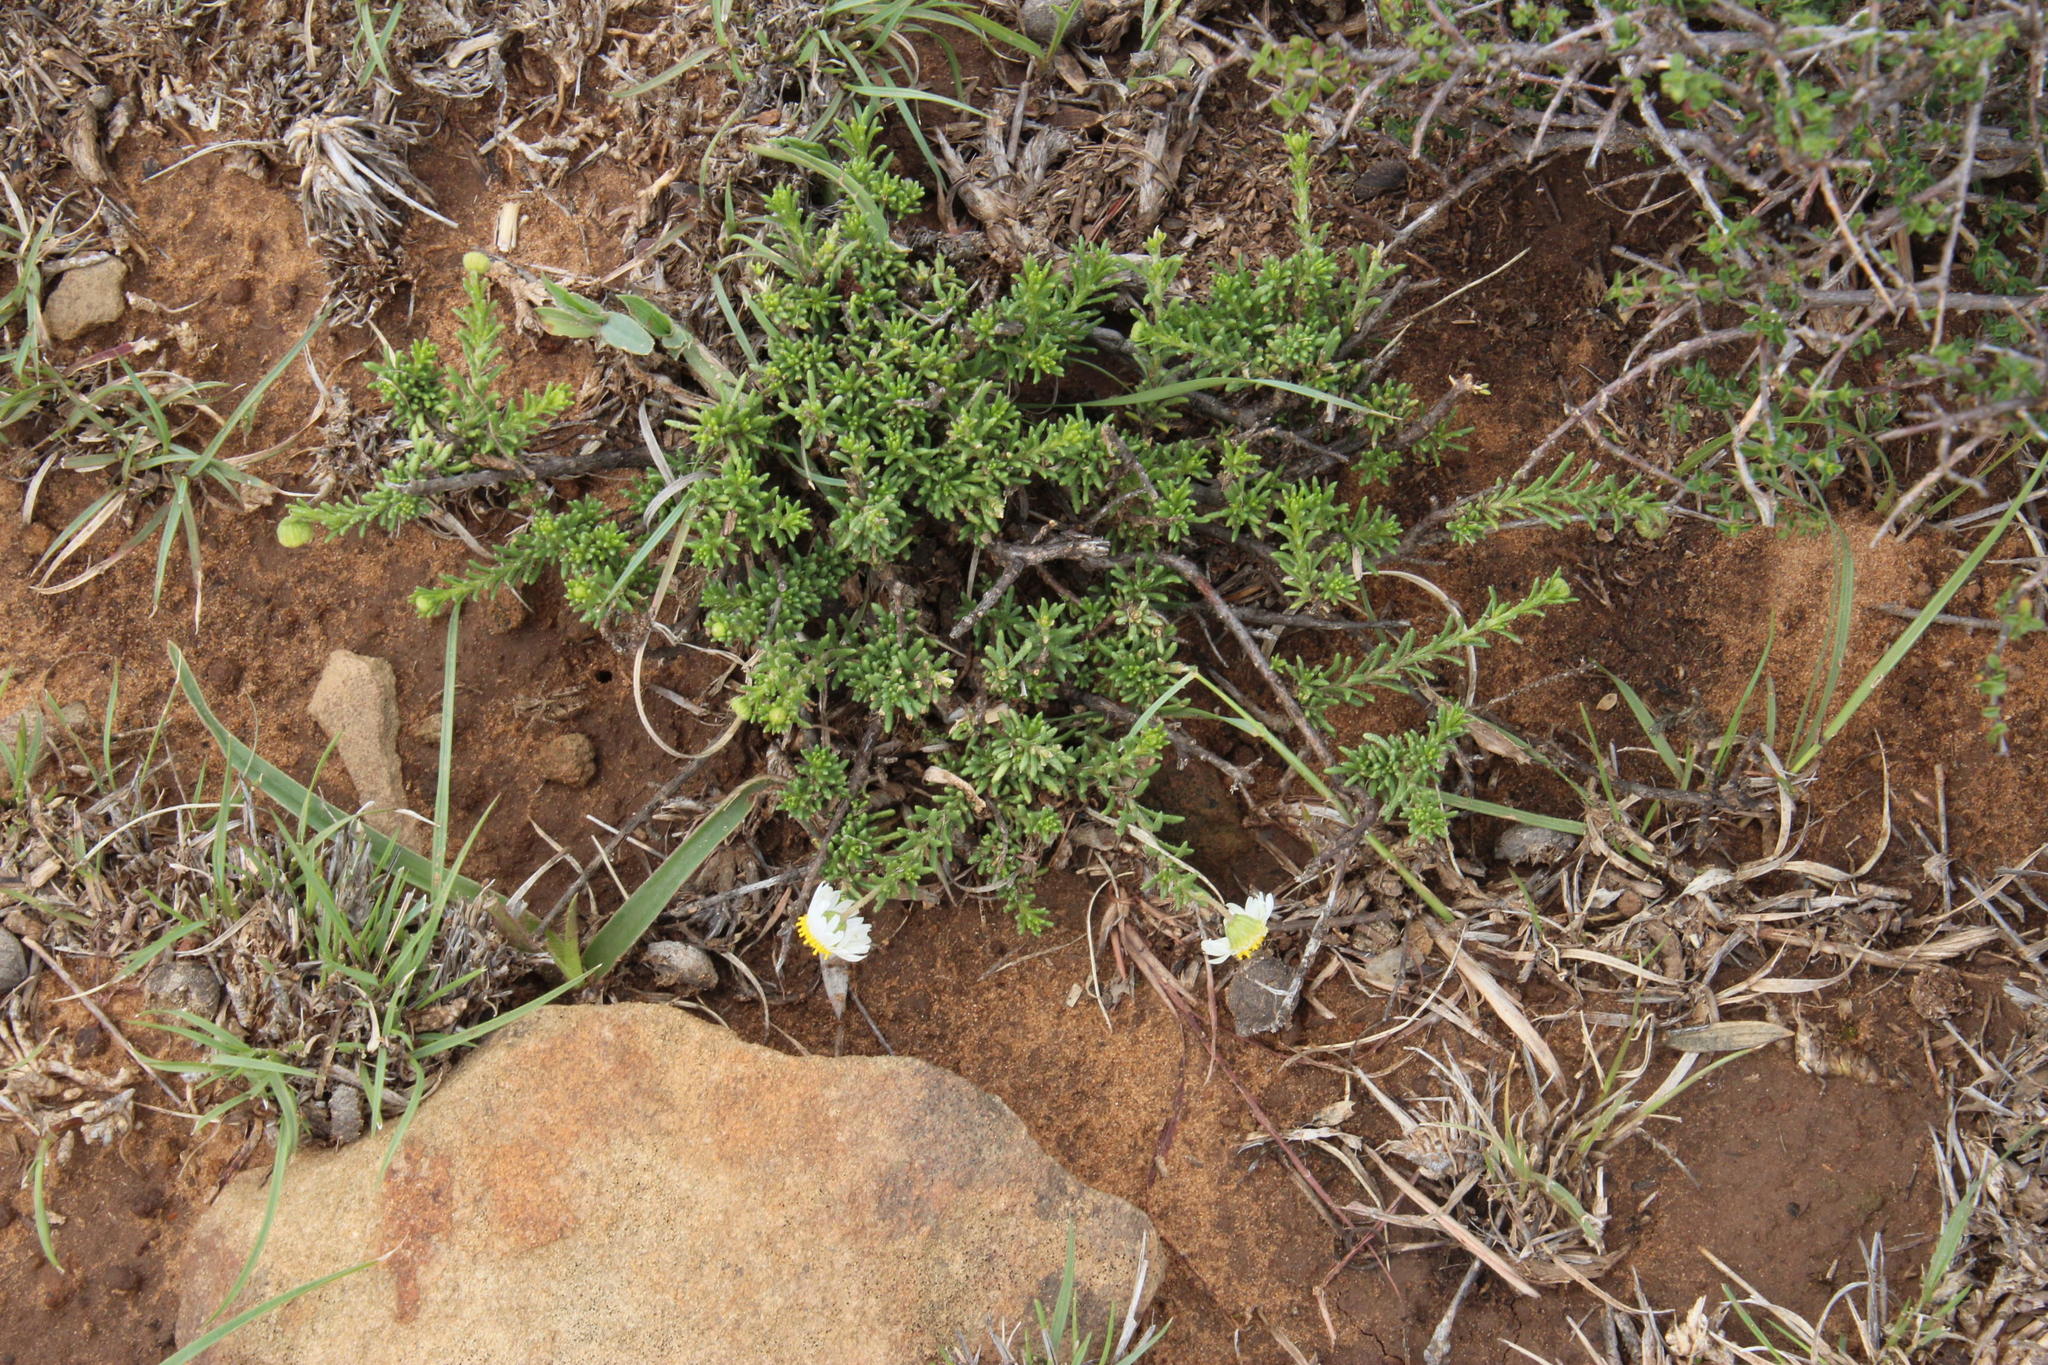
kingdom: Plantae
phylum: Tracheophyta
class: Magnoliopsida
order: Asterales
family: Asteraceae
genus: Felicia
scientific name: Felicia muricata
